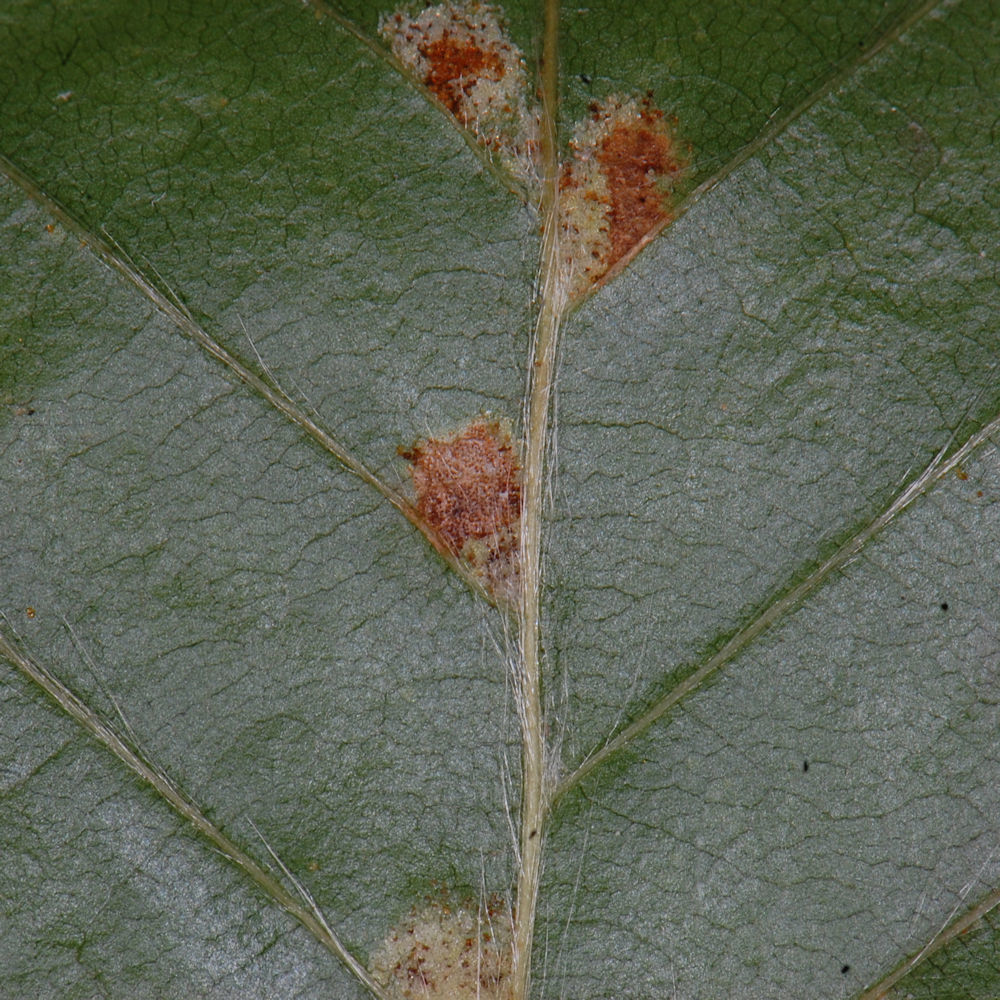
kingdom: Animalia
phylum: Arthropoda
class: Arachnida
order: Trombidiformes
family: Eriophyidae
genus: Acalitus
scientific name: Acalitus
